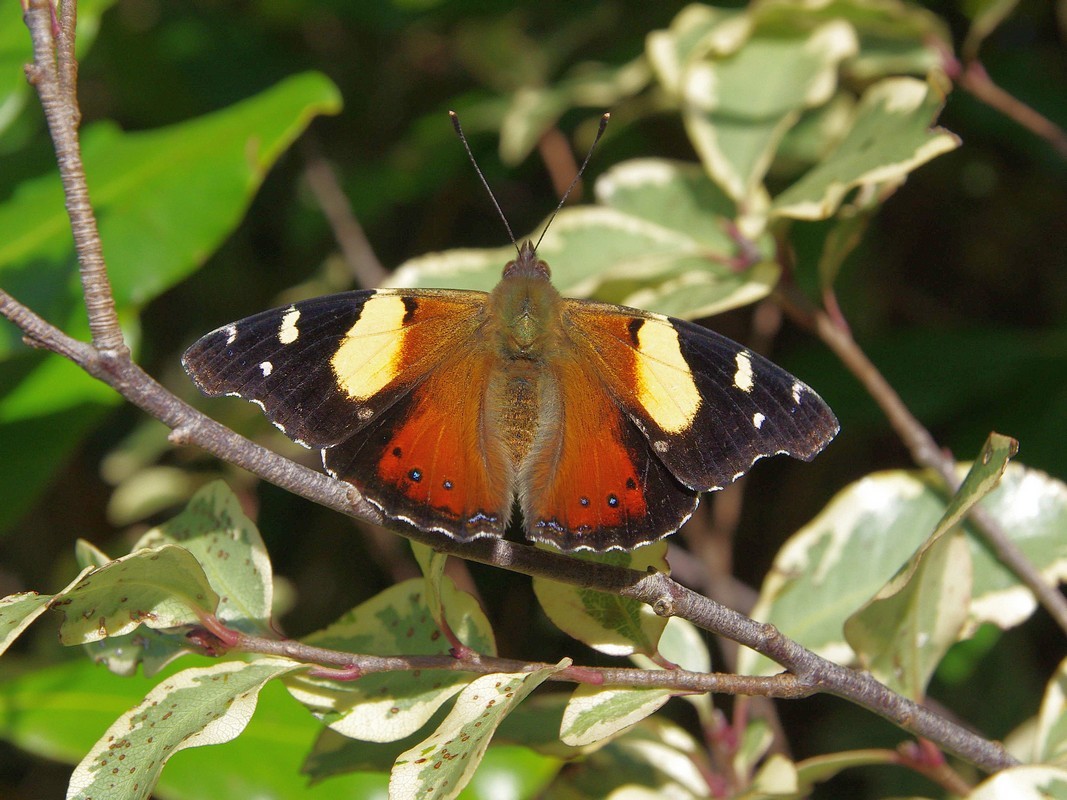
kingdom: Animalia
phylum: Arthropoda
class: Insecta
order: Lepidoptera
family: Nymphalidae
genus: Vanessa
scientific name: Vanessa itea
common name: Yellow admiral
